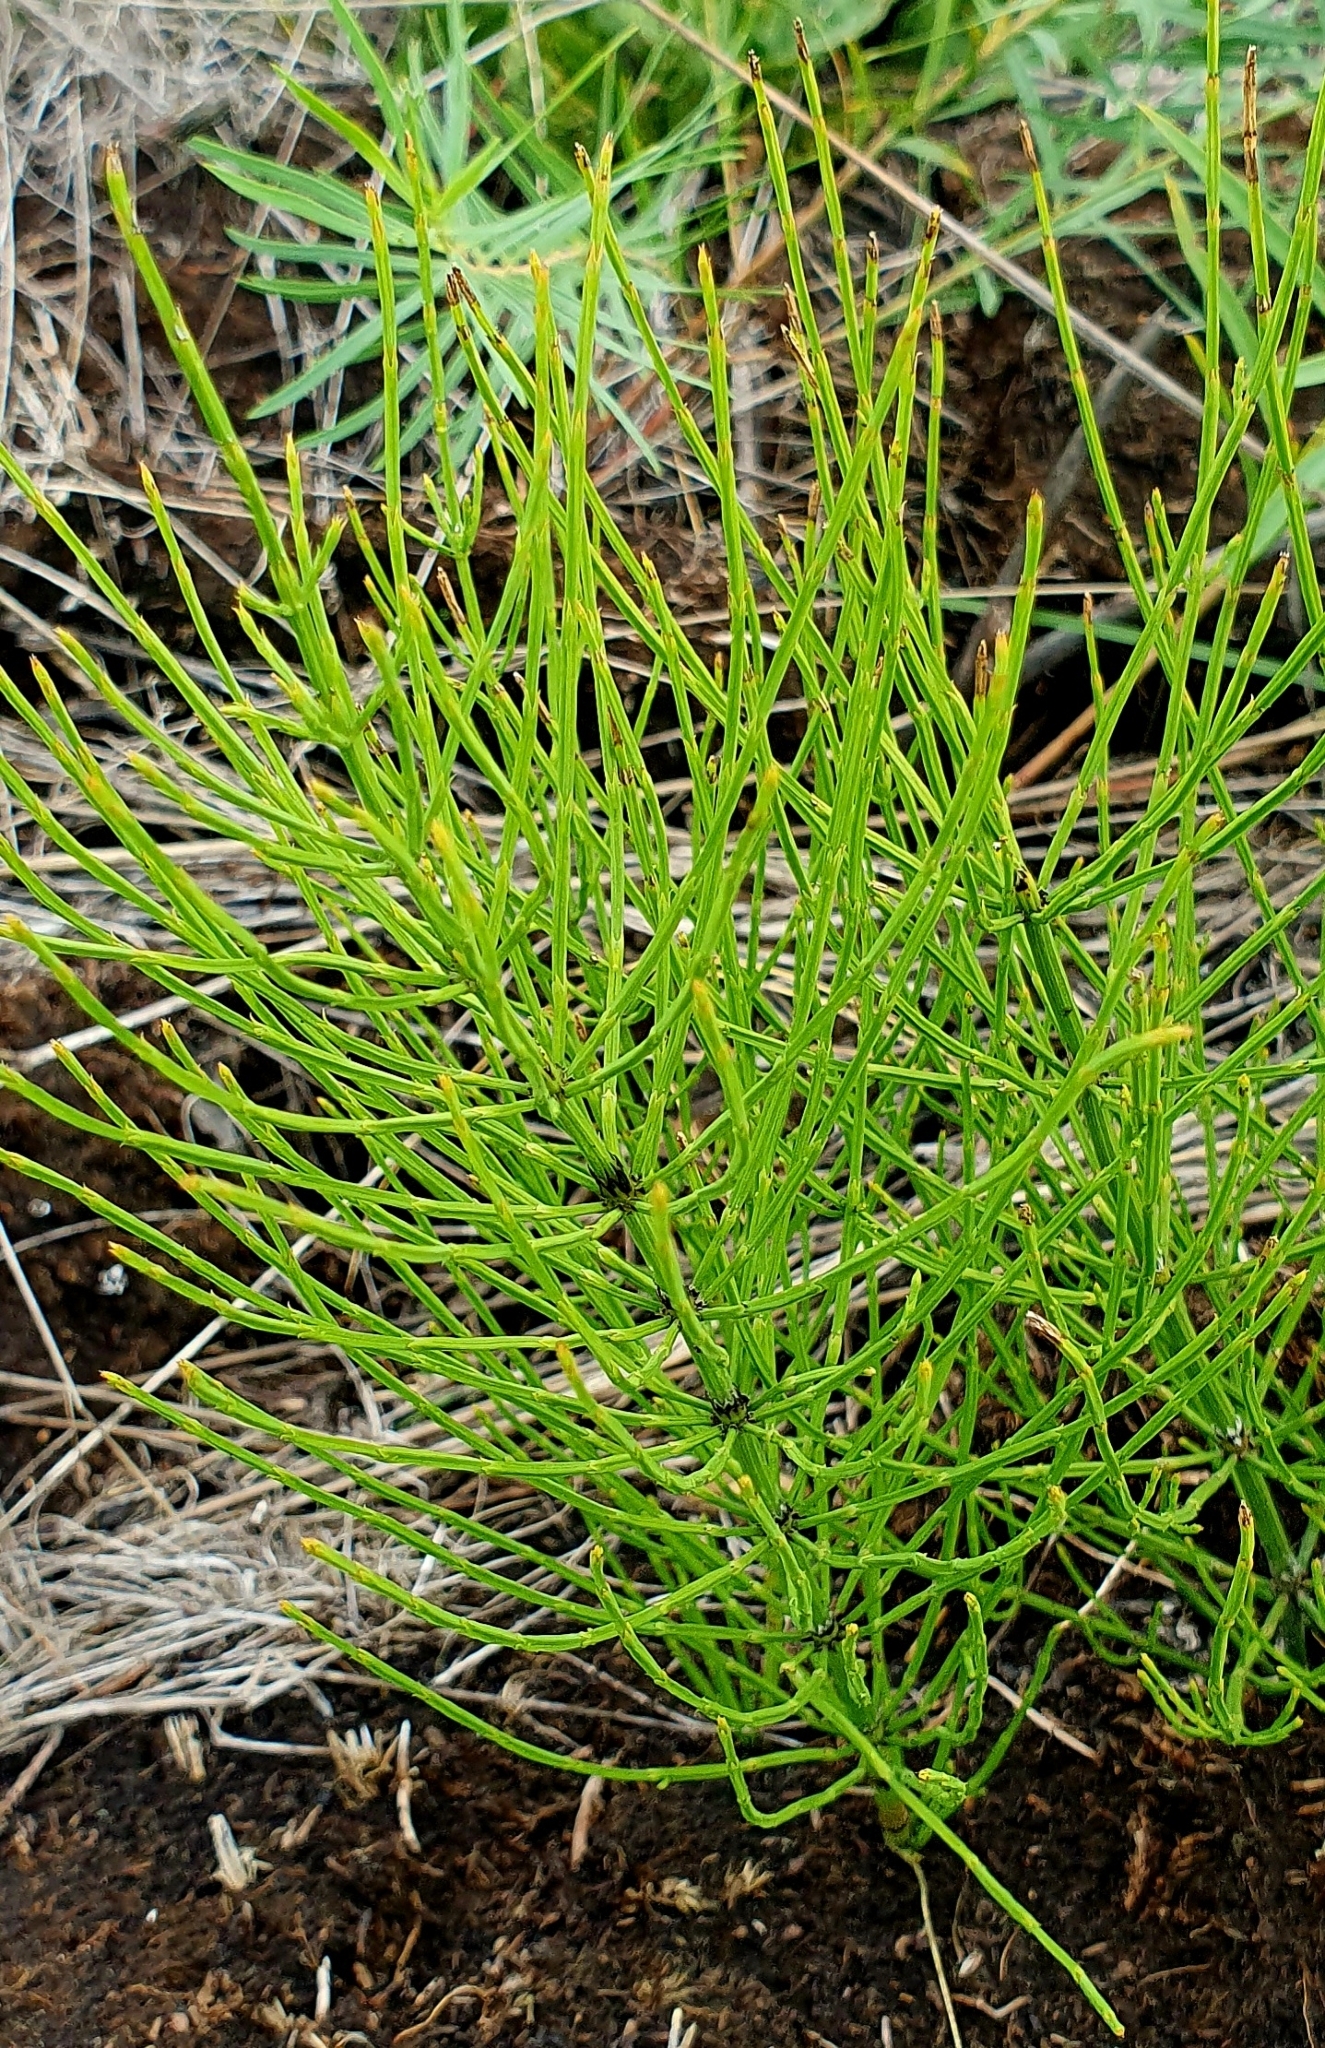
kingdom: Plantae
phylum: Tracheophyta
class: Polypodiopsida
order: Equisetales
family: Equisetaceae
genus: Equisetum
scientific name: Equisetum arvense
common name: Field horsetail
